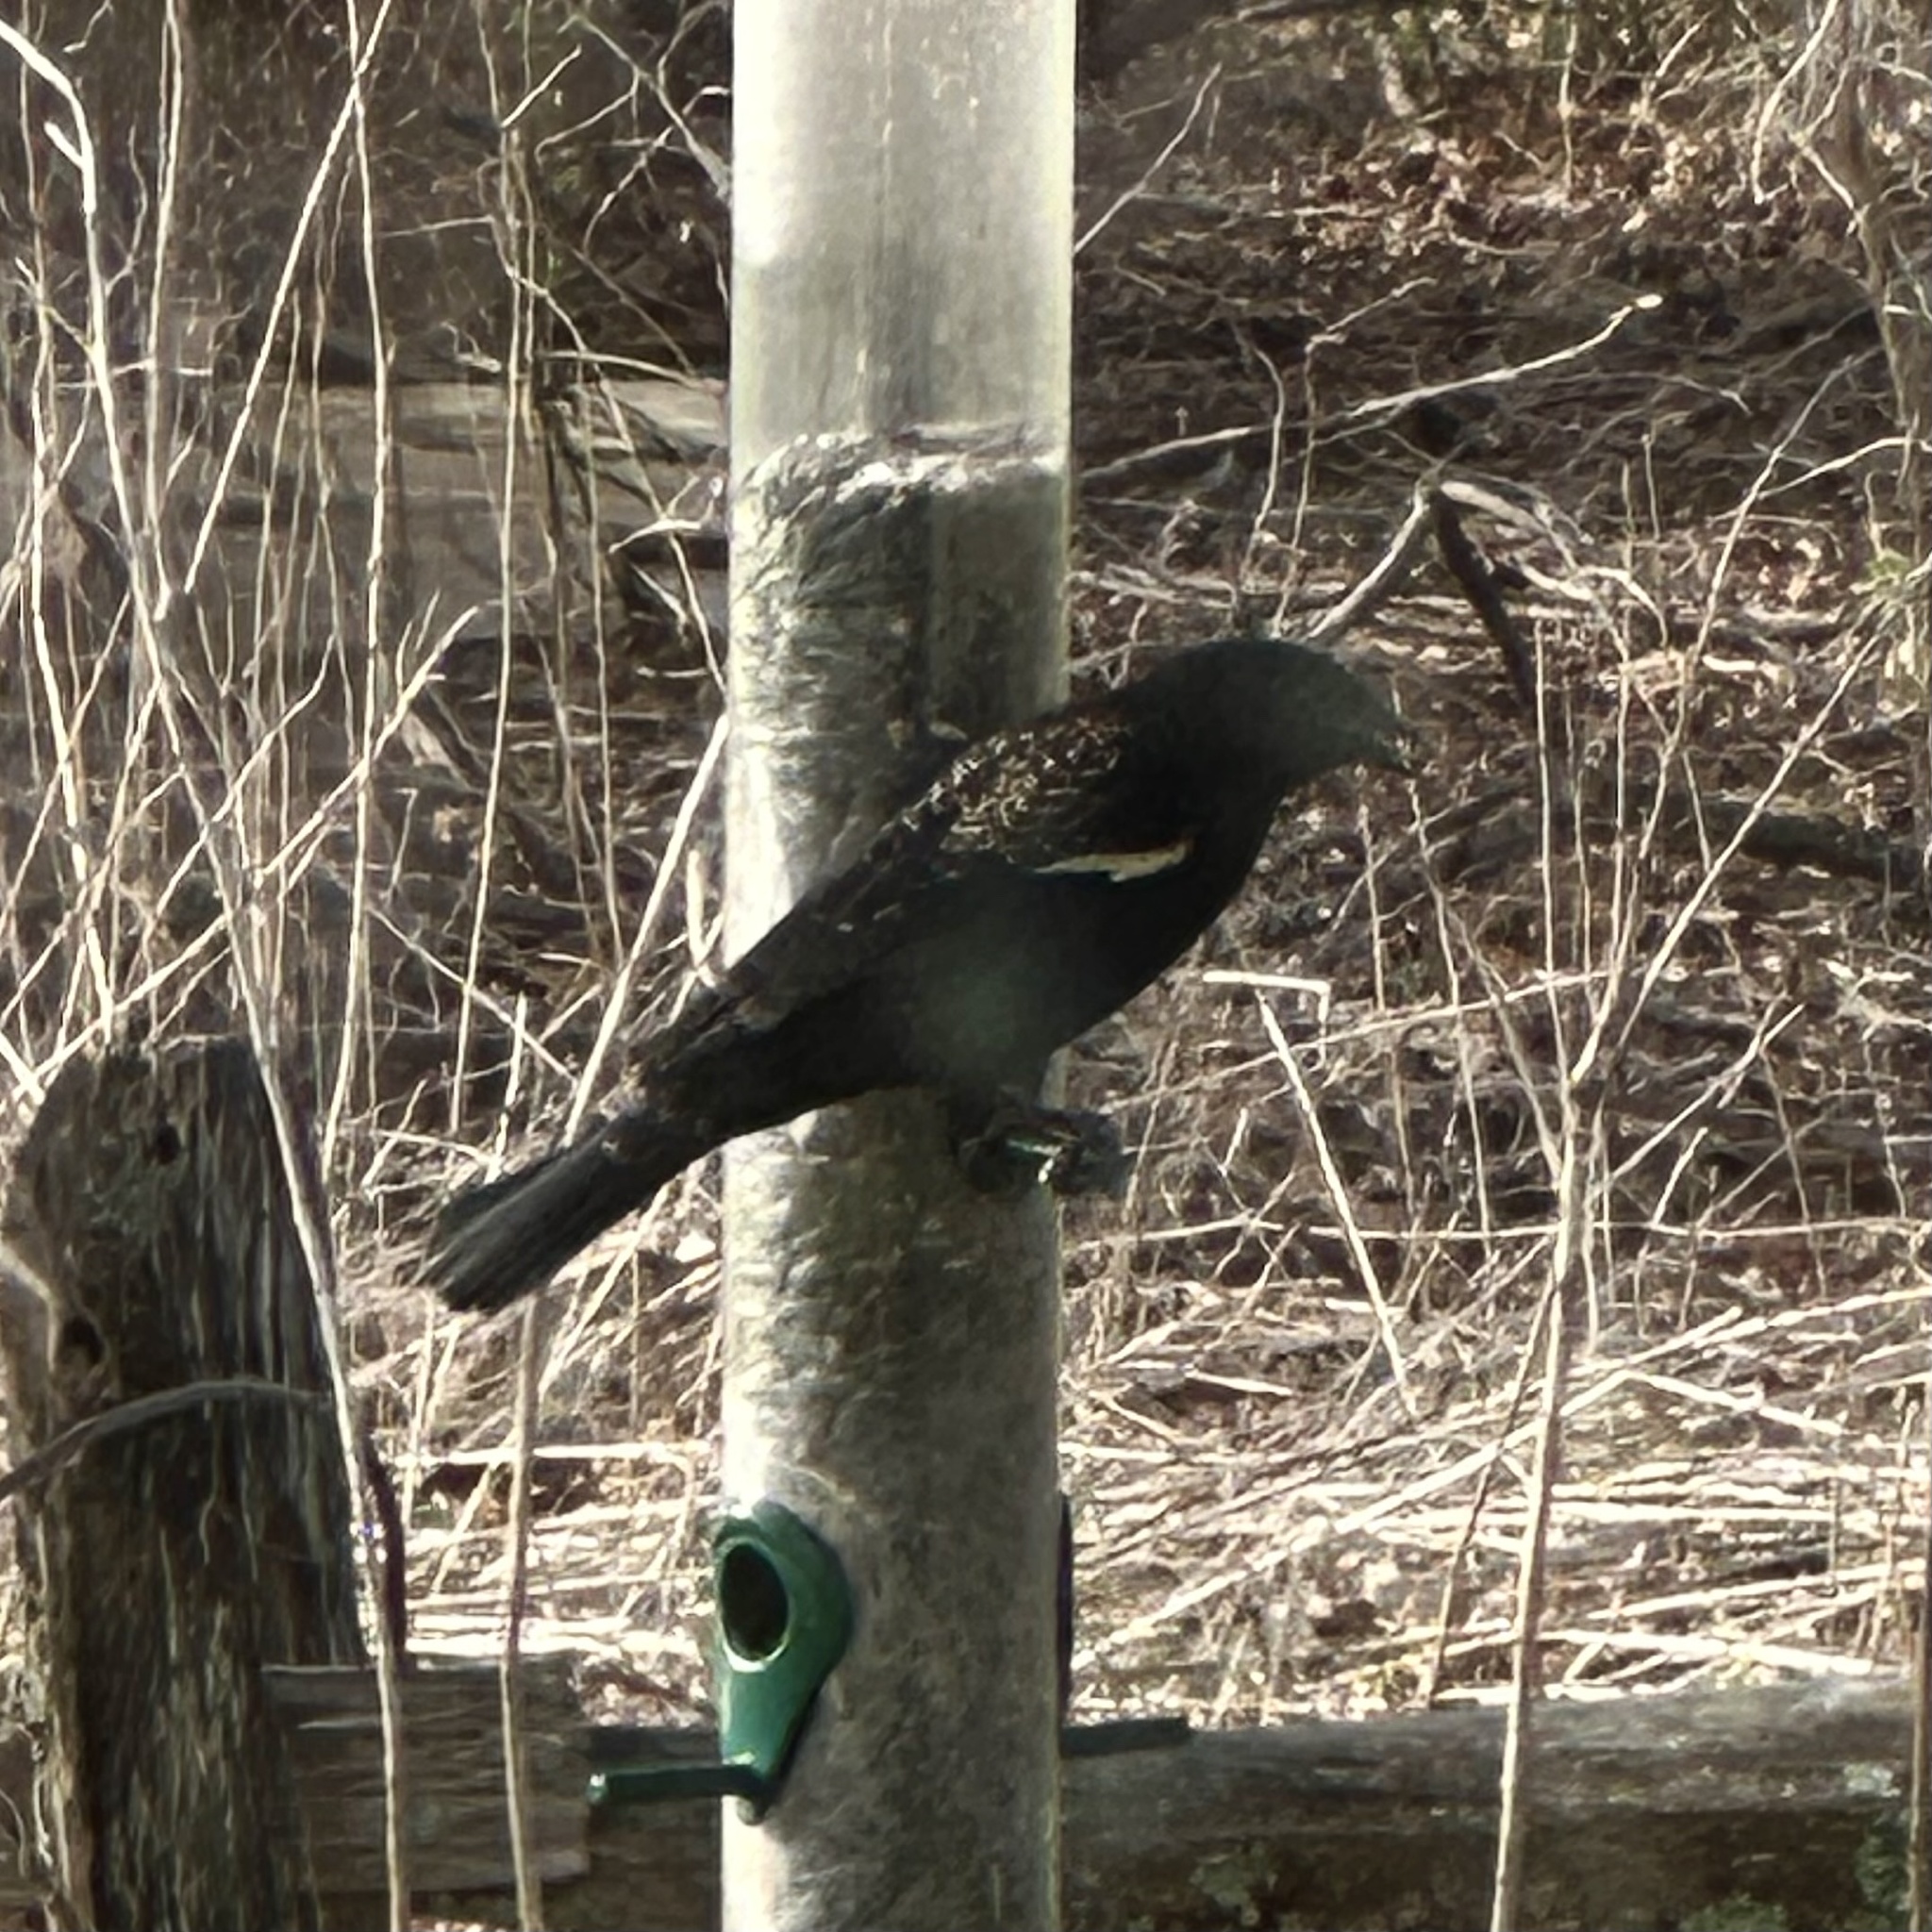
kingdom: Animalia
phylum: Chordata
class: Aves
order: Passeriformes
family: Icteridae
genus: Agelaius
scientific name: Agelaius phoeniceus
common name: Red-winged blackbird
